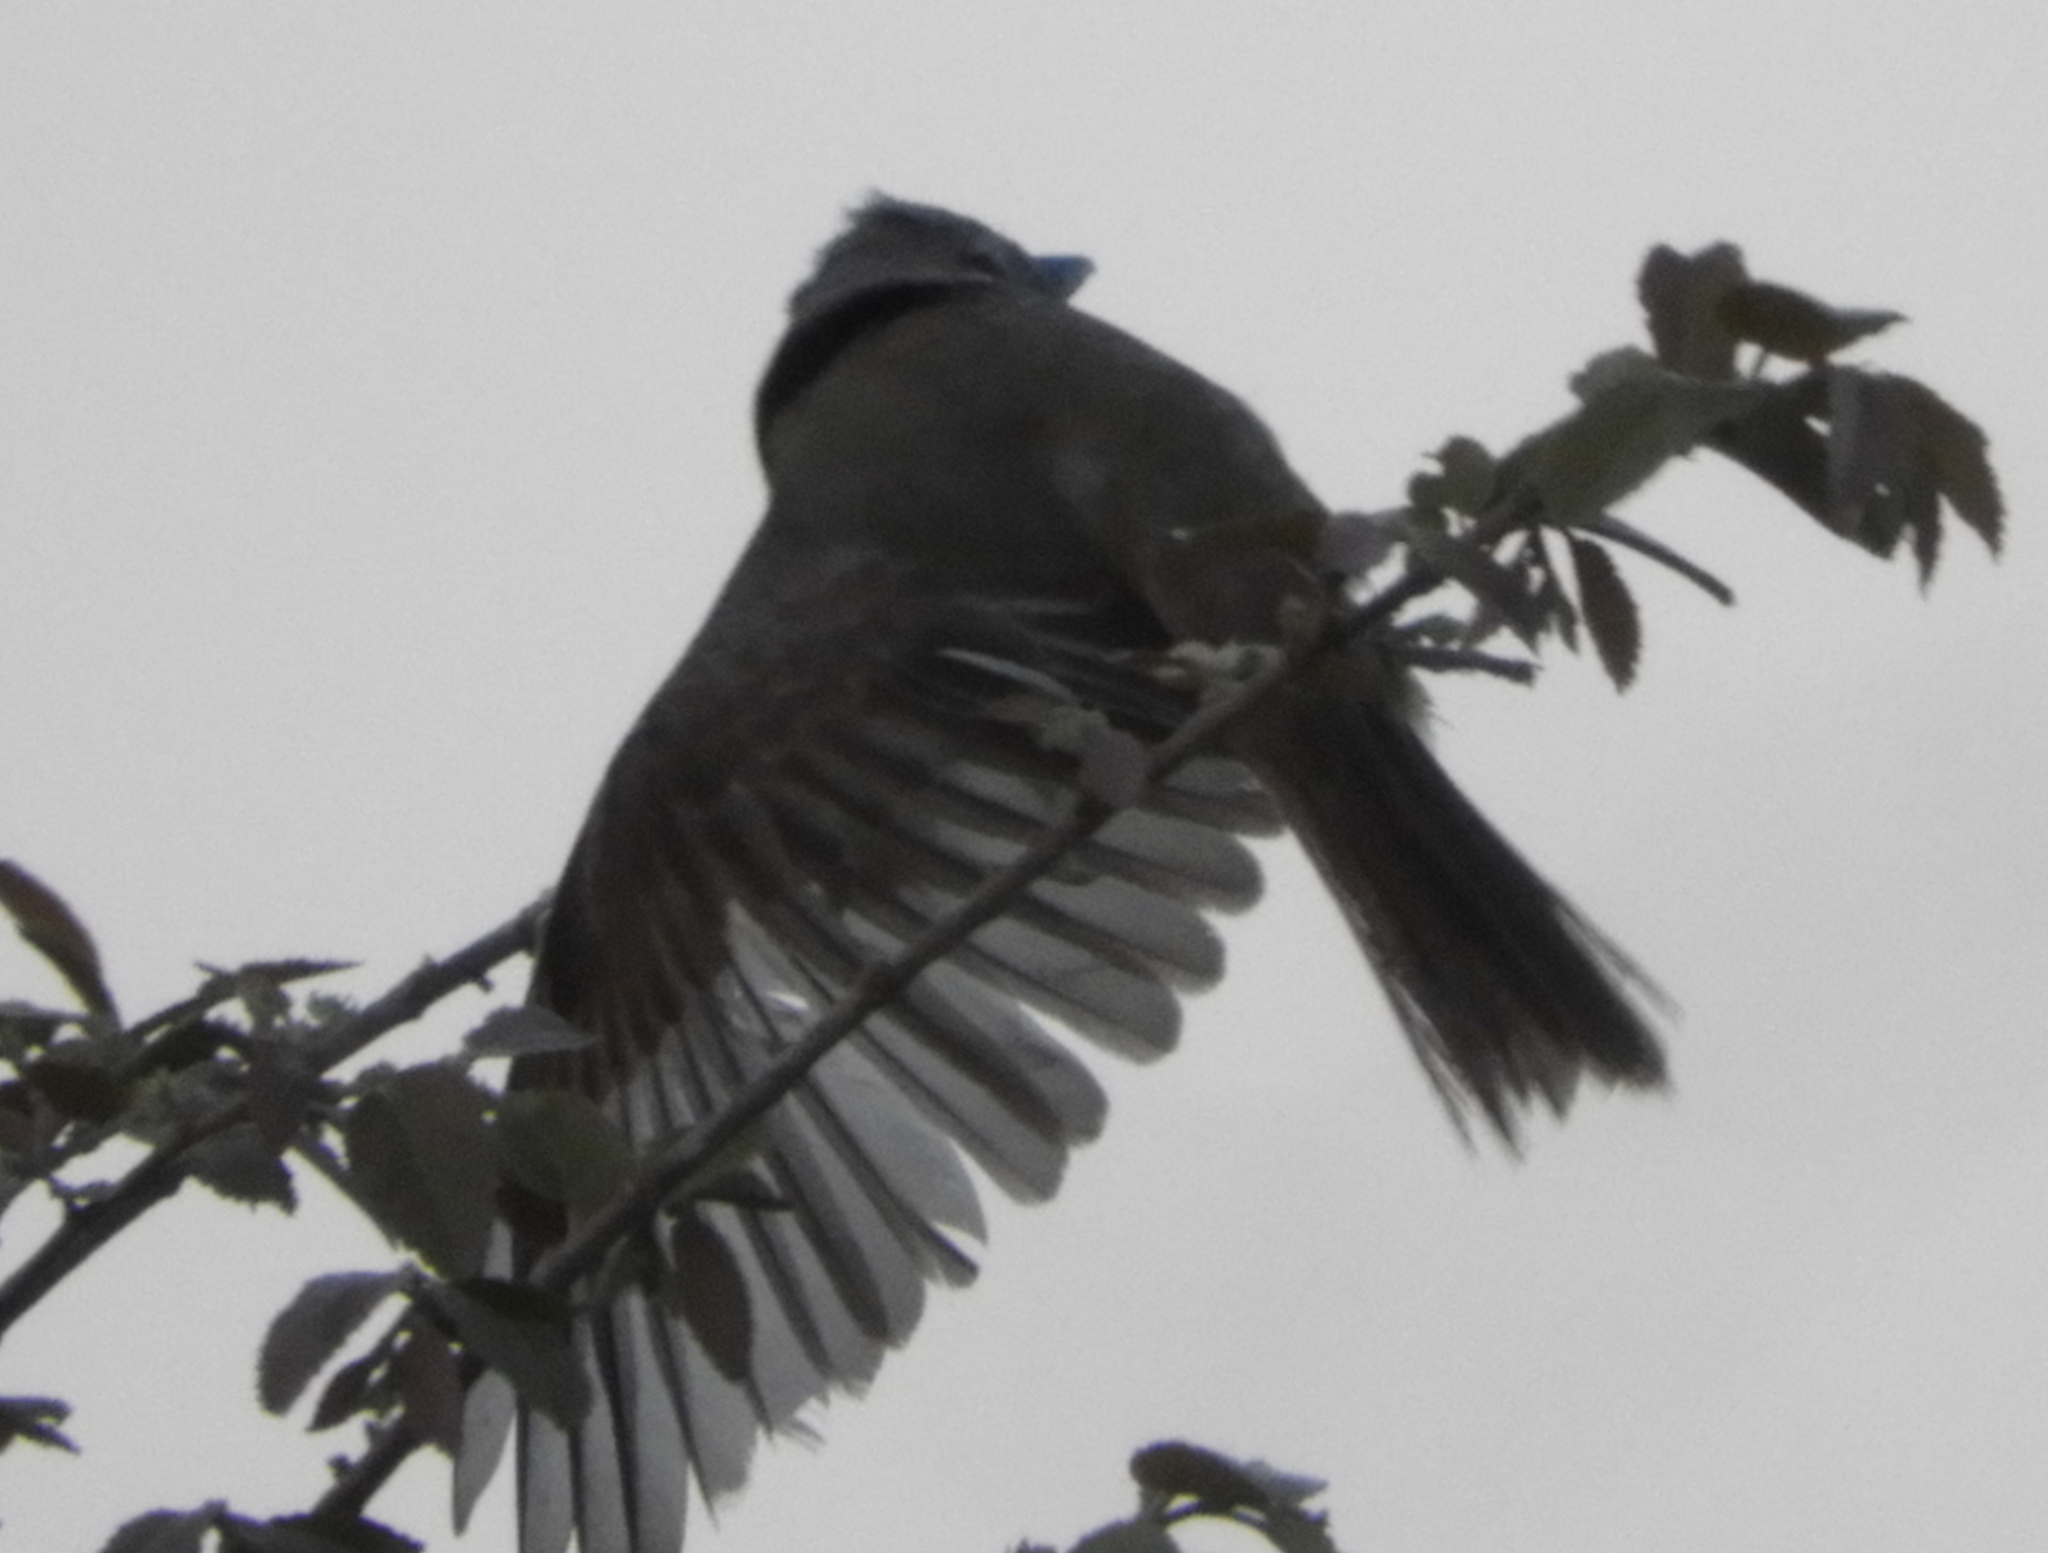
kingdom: Animalia
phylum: Chordata
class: Aves
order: Passeriformes
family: Tyrannidae
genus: Tyrannus
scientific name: Tyrannus crassirostris
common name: Thick-billed kingbird
